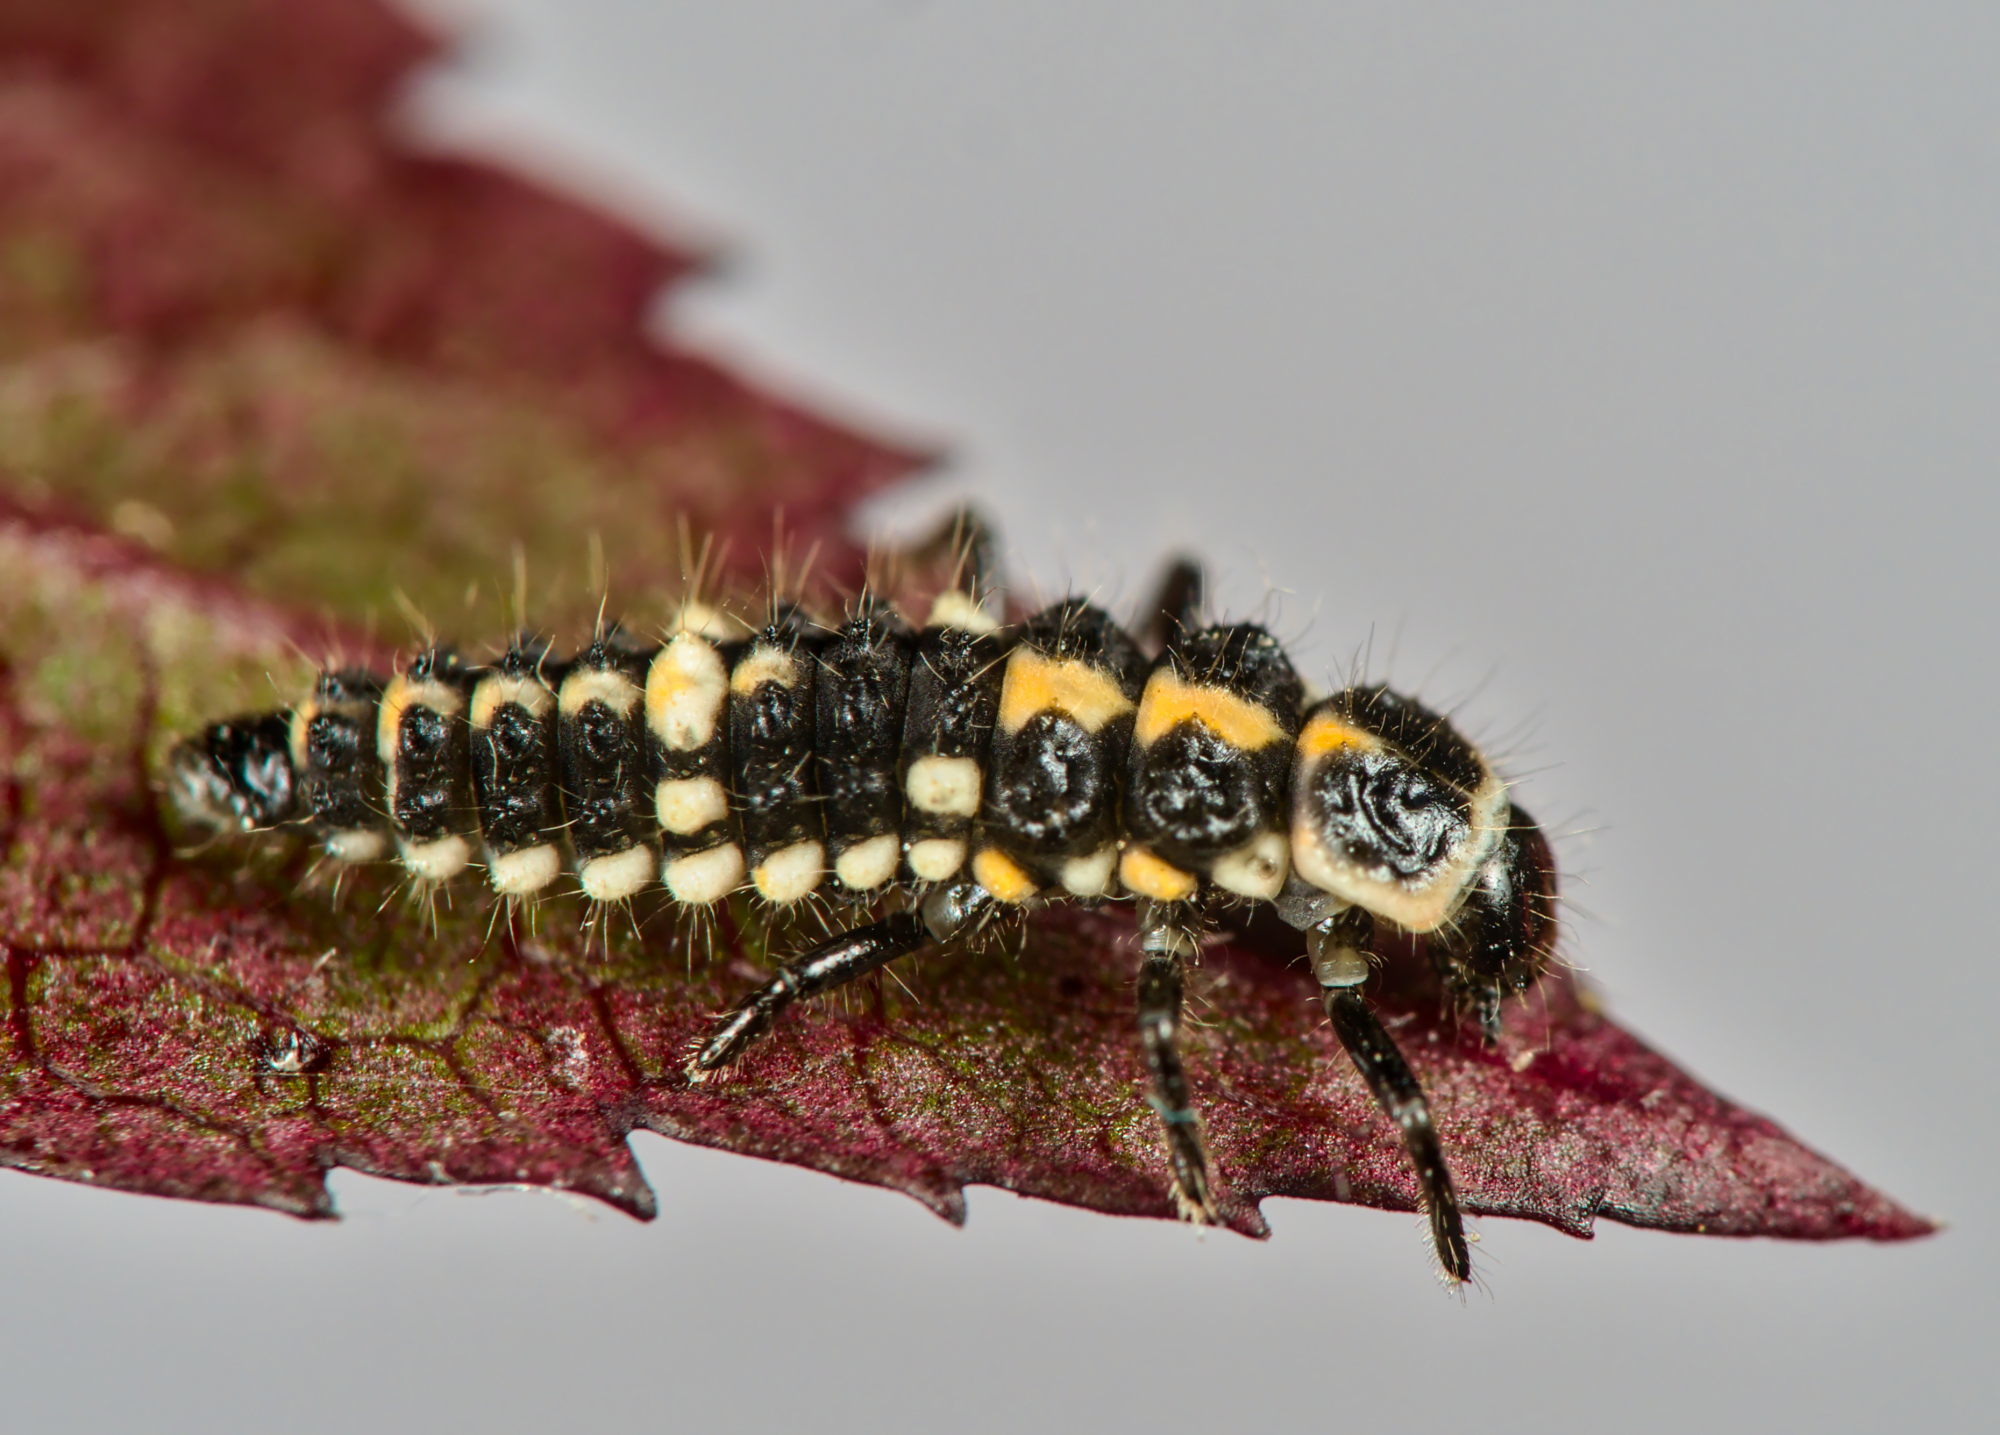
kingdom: Animalia
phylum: Arthropoda
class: Insecta
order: Coleoptera
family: Coccinellidae
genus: Oenopia
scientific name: Oenopia conglobata
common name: Ladybird beetle
